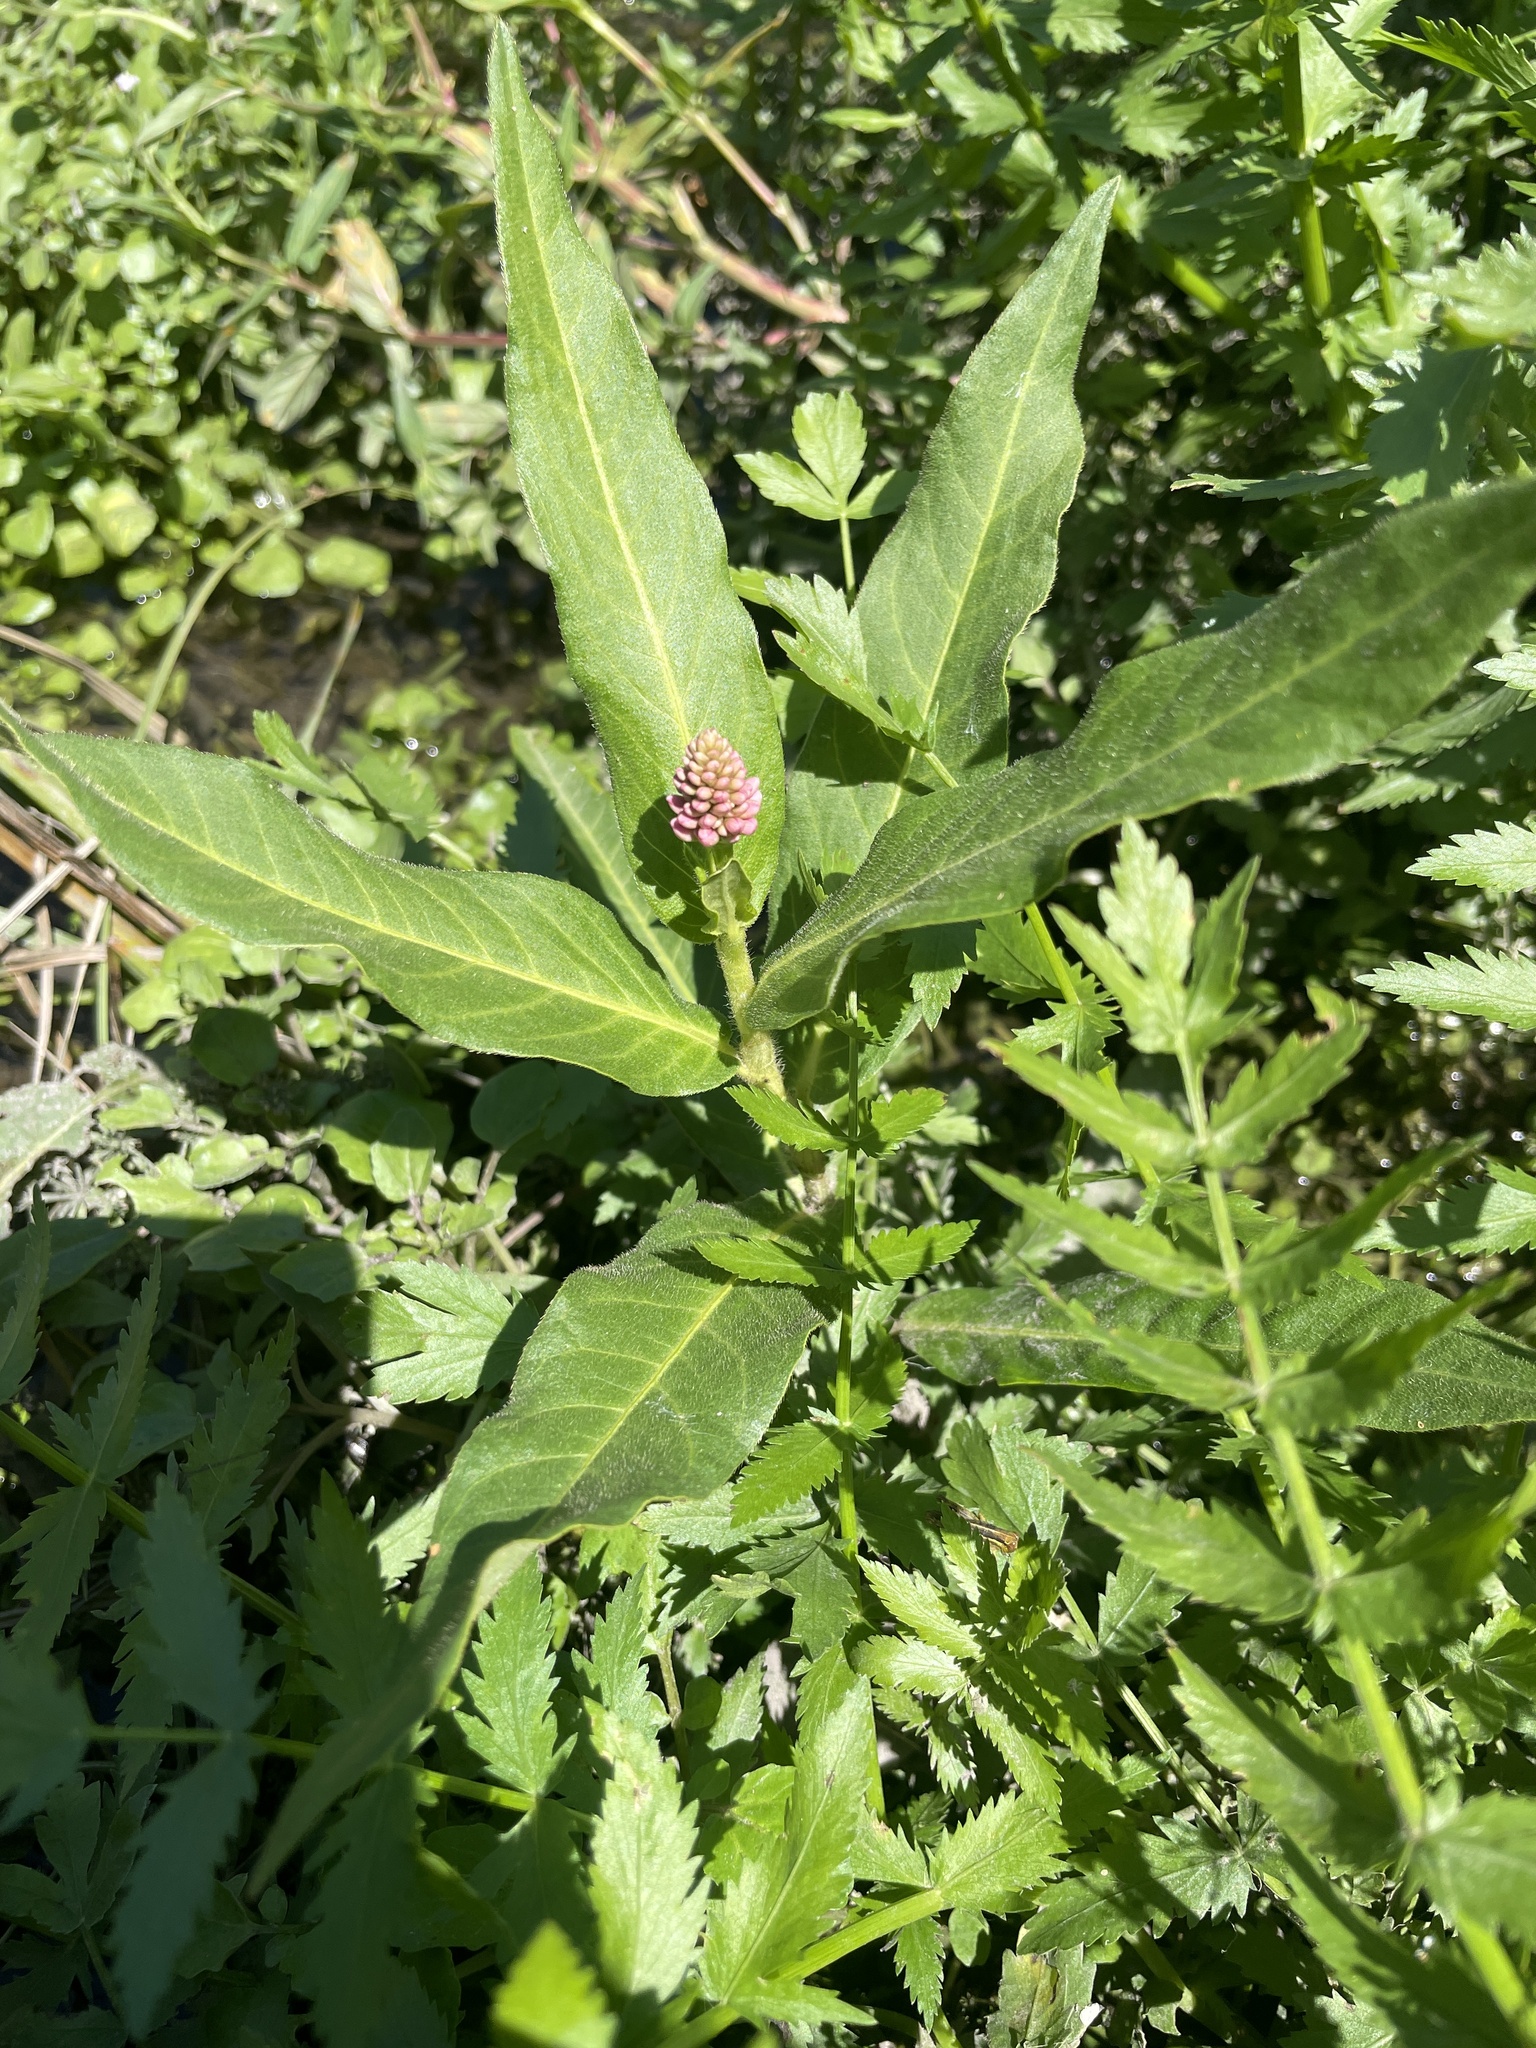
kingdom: Plantae
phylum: Tracheophyta
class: Magnoliopsida
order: Caryophyllales
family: Polygonaceae
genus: Persicaria
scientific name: Persicaria amphibia
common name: Amphibious bistort
